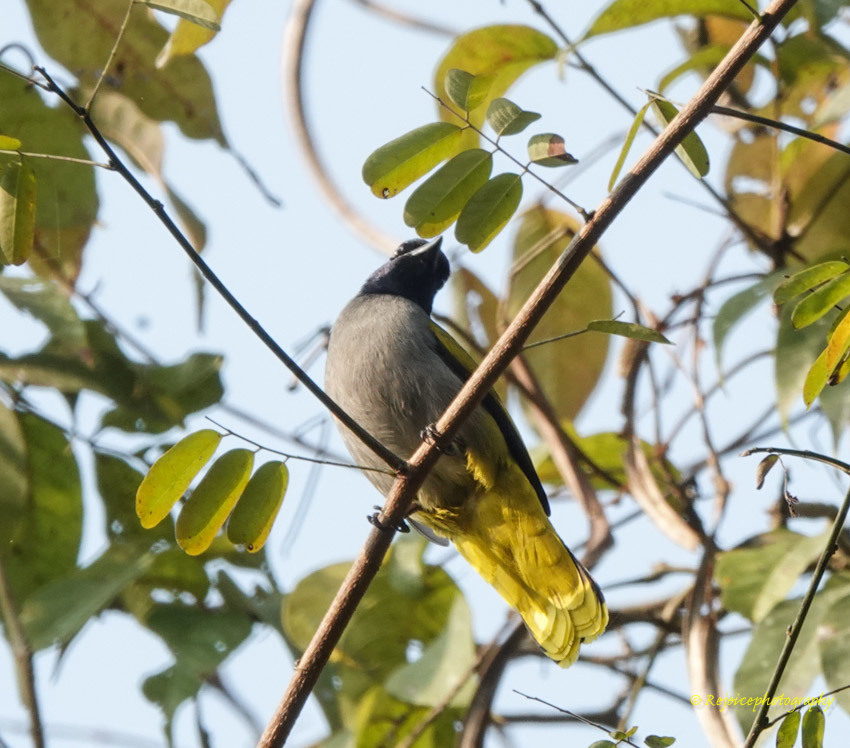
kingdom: Animalia
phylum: Chordata
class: Aves
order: Passeriformes
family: Pycnonotidae
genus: Microtarsus
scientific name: Microtarsus
